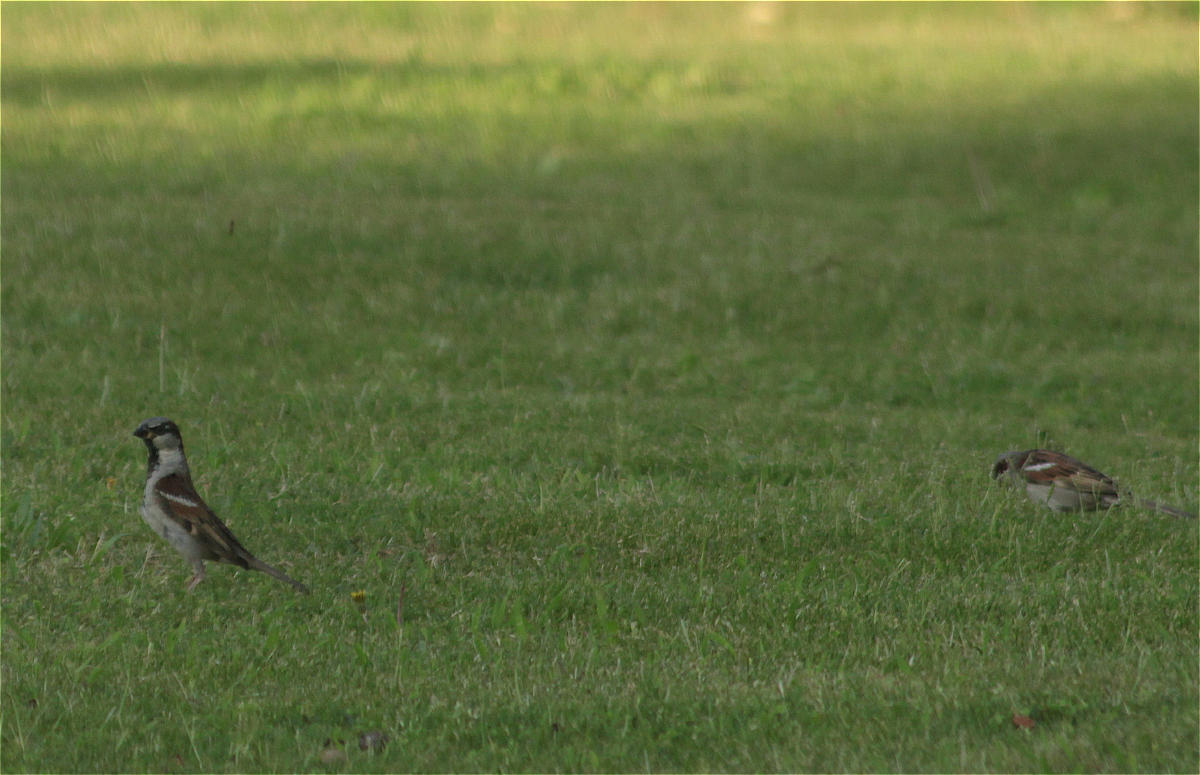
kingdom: Animalia
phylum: Chordata
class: Aves
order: Passeriformes
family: Passeridae
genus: Passer
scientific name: Passer domesticus
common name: House sparrow
